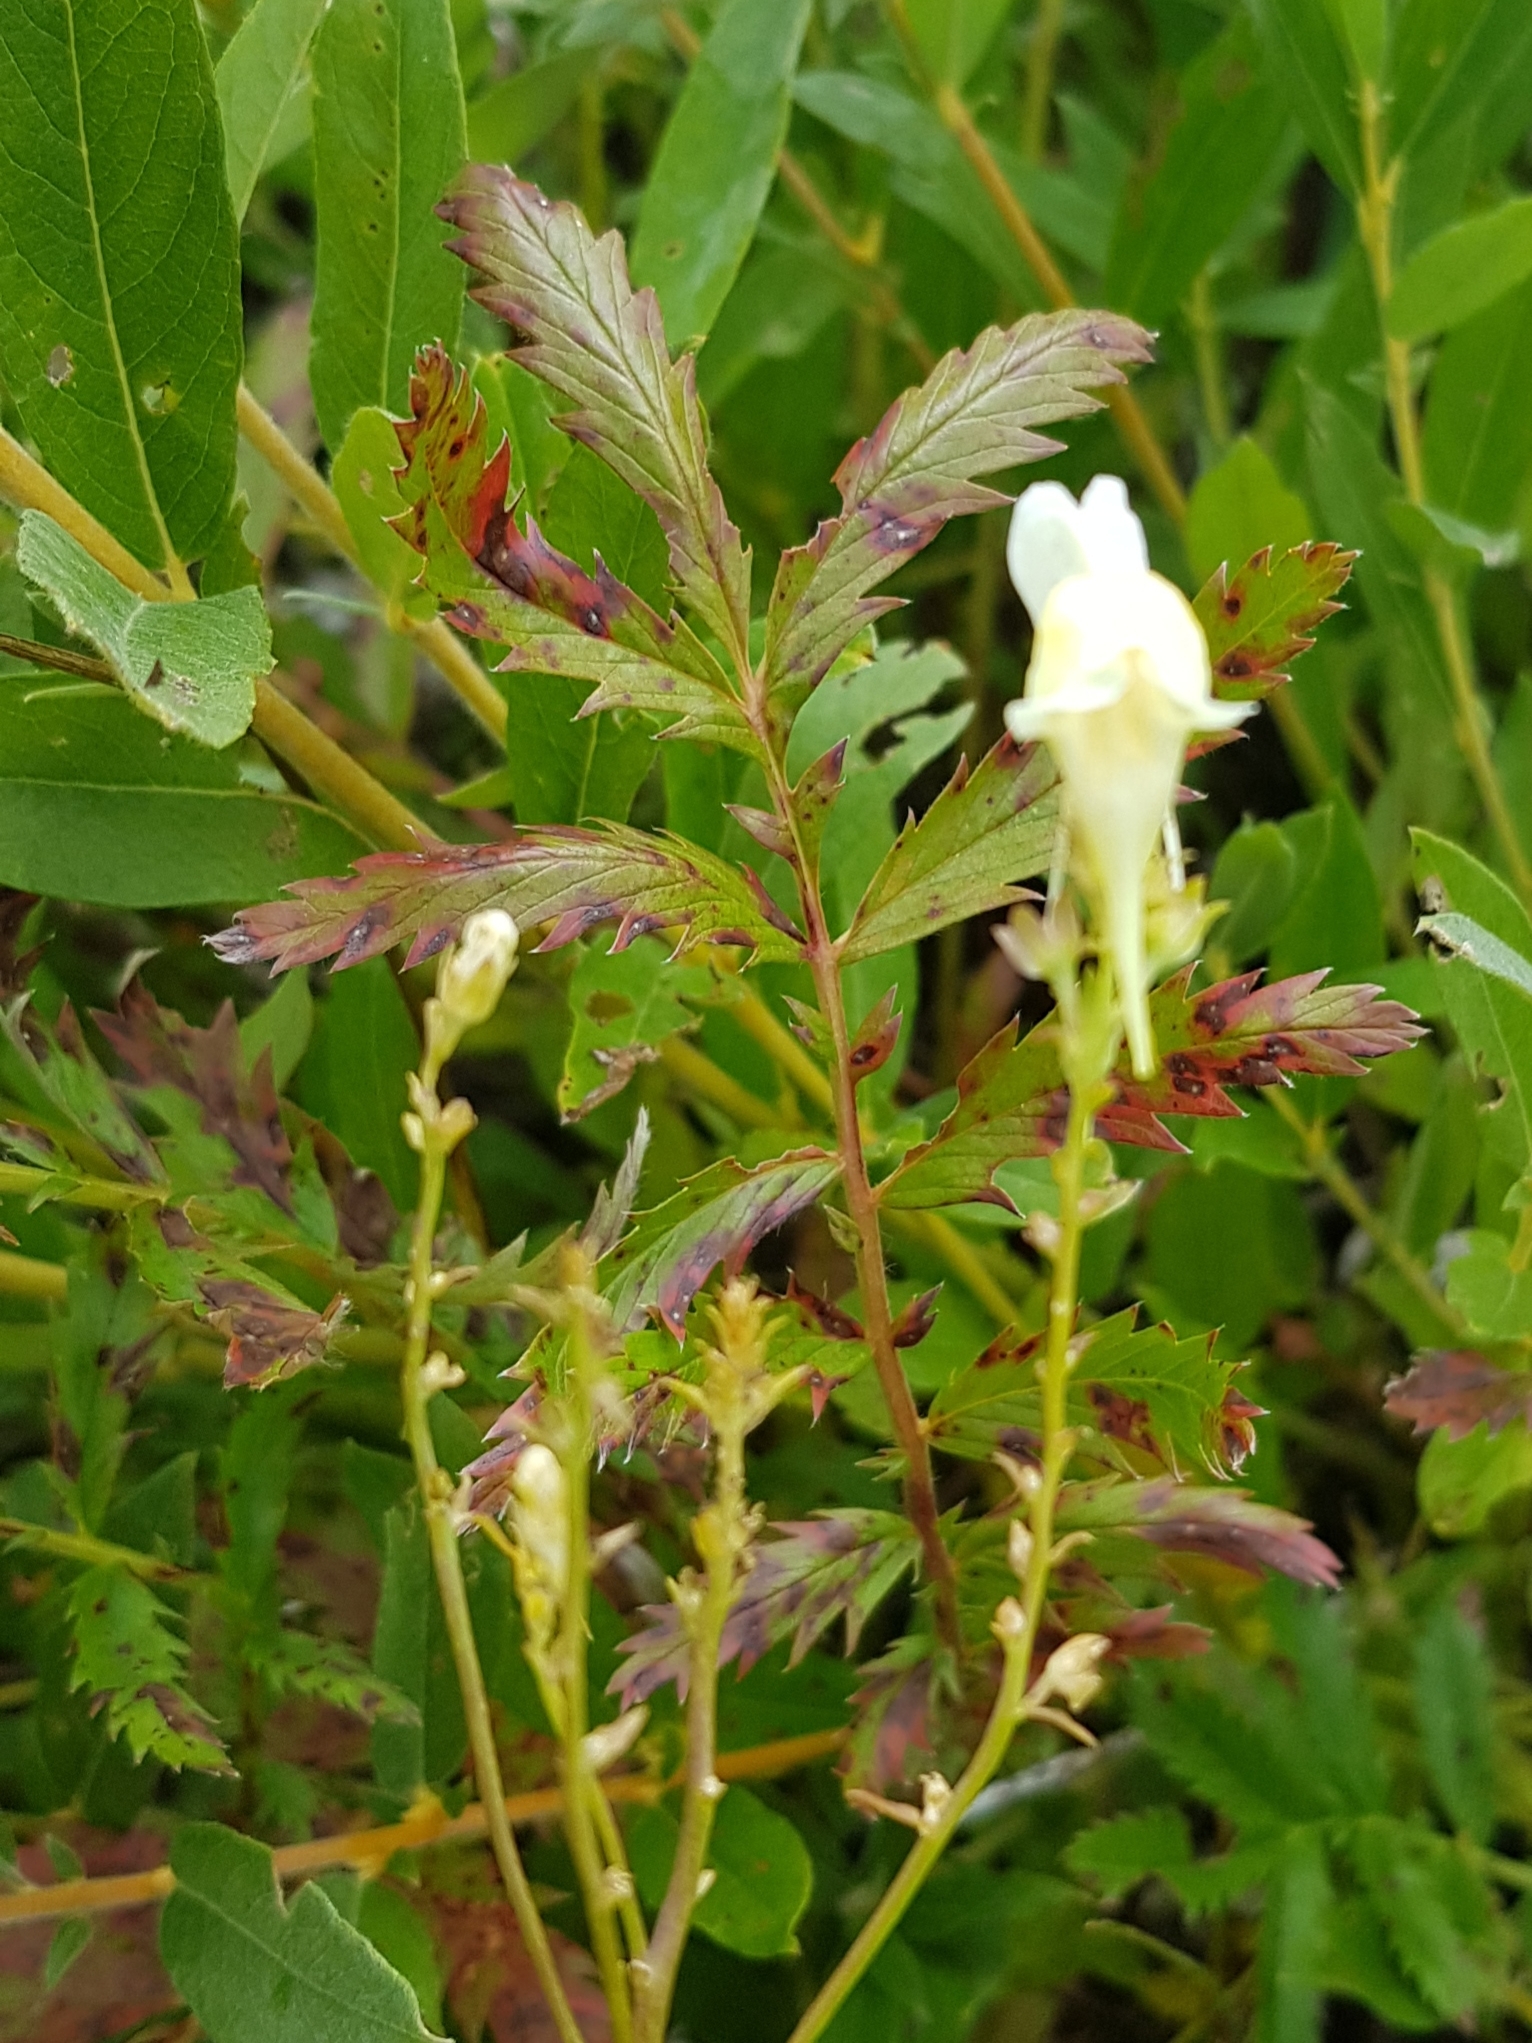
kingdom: Plantae
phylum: Tracheophyta
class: Magnoliopsida
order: Lamiales
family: Plantaginaceae
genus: Linaria
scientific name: Linaria vulgaris
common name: Butter and eggs
